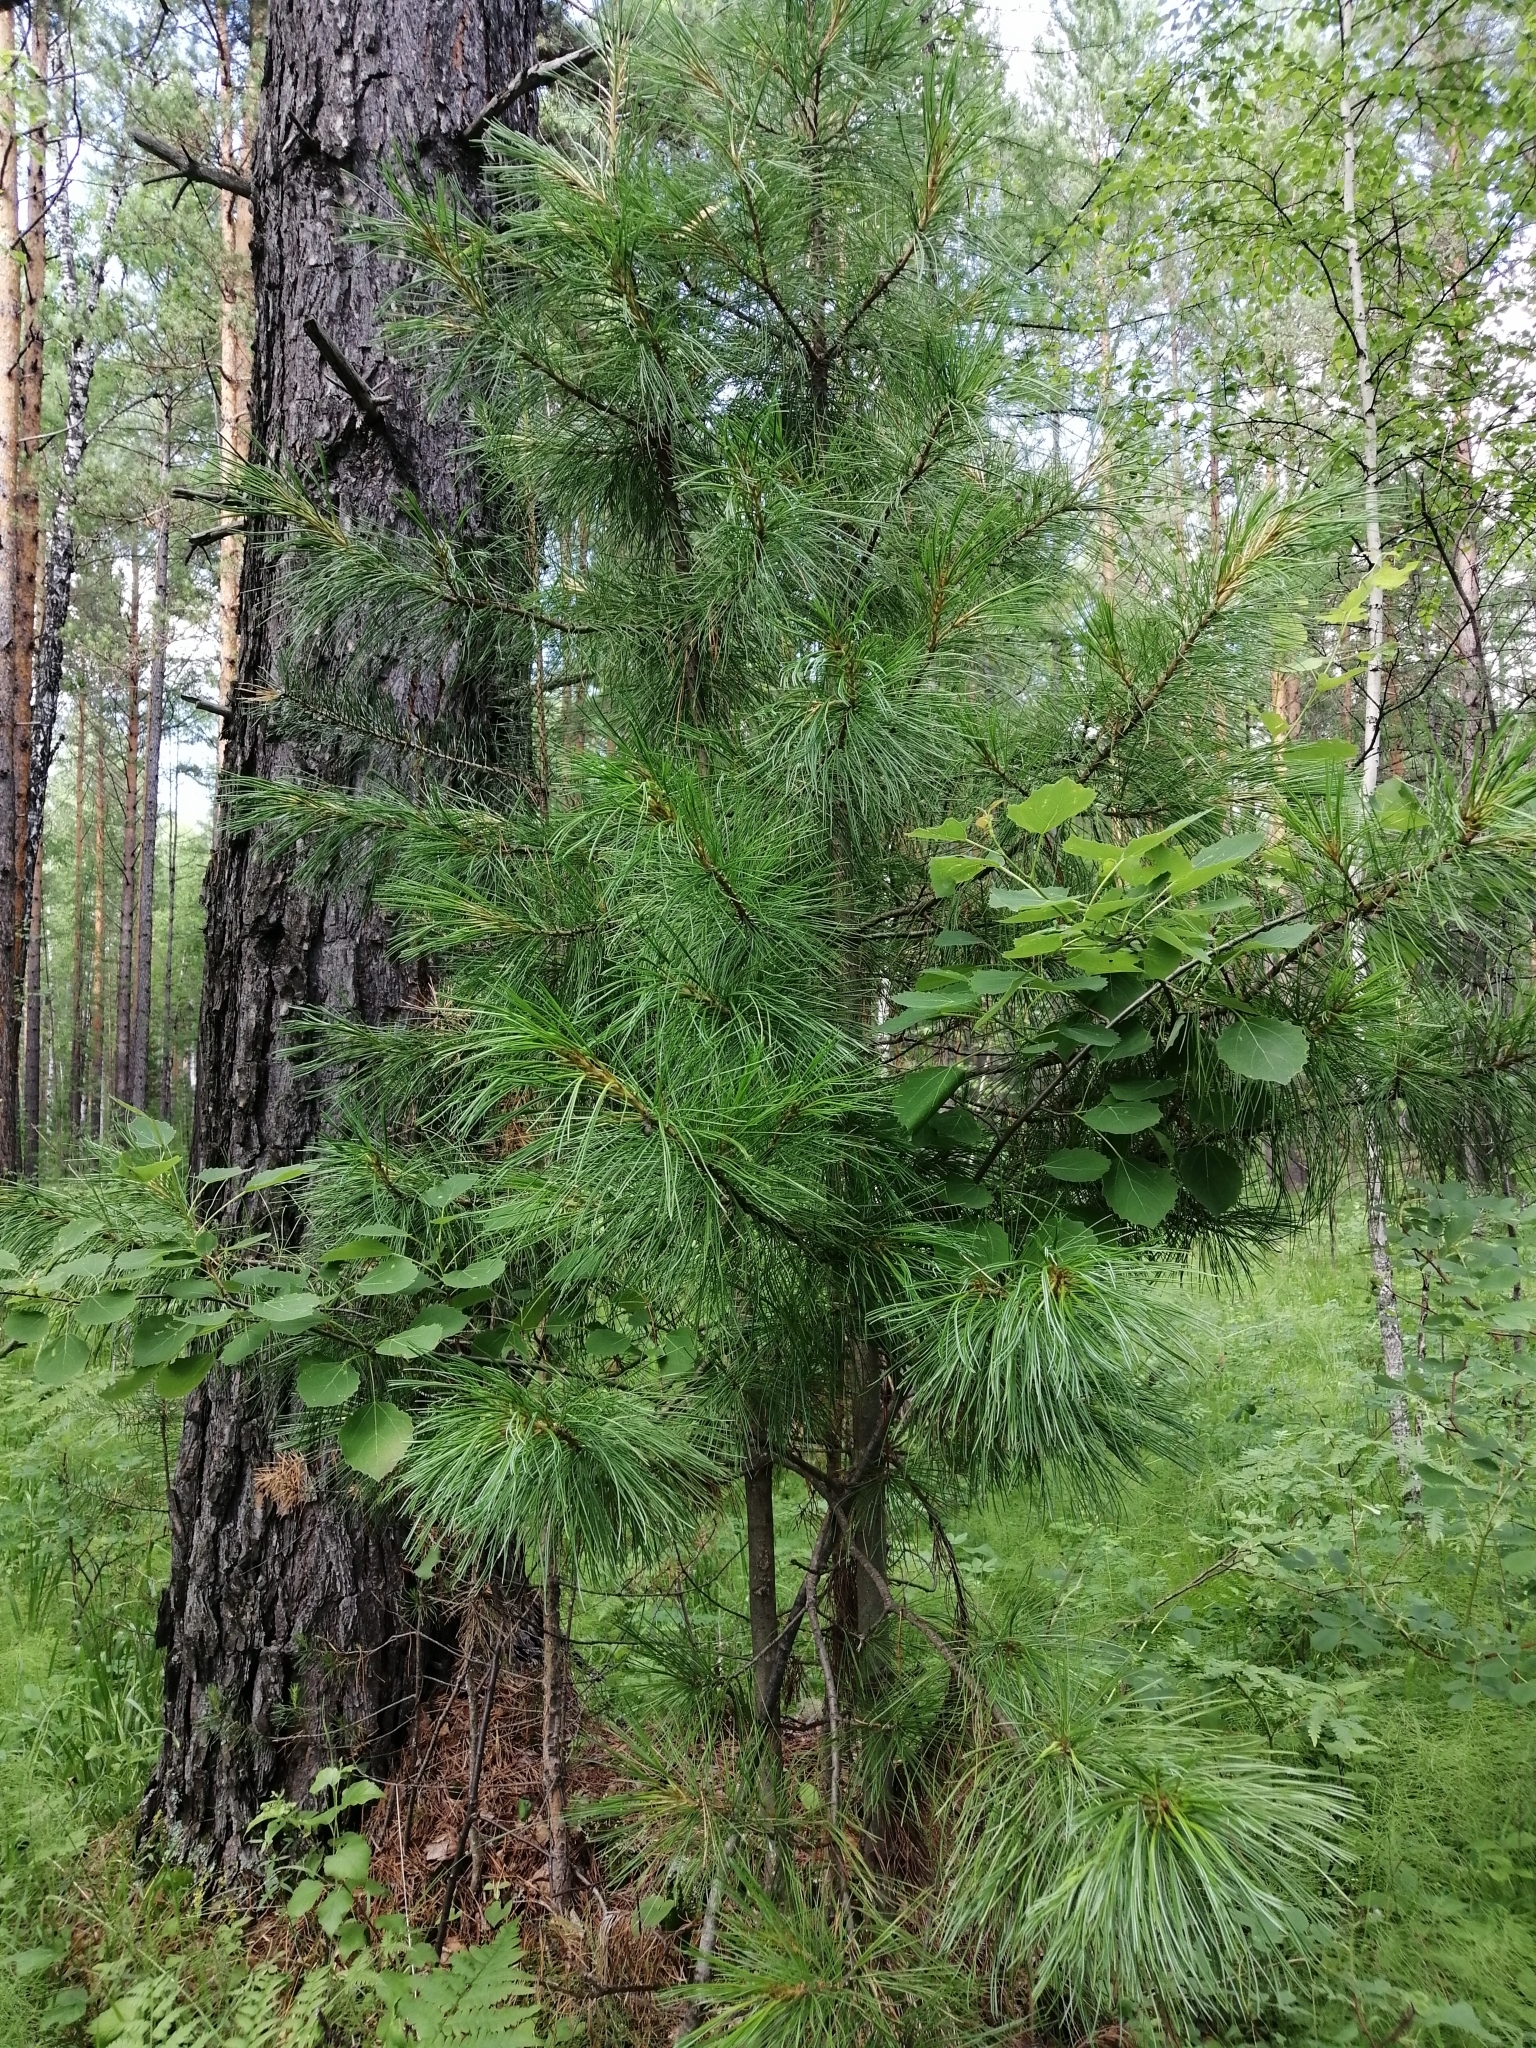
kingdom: Plantae
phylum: Tracheophyta
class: Pinopsida
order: Pinales
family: Pinaceae
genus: Pinus
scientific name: Pinus sibirica
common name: Siberian pine
